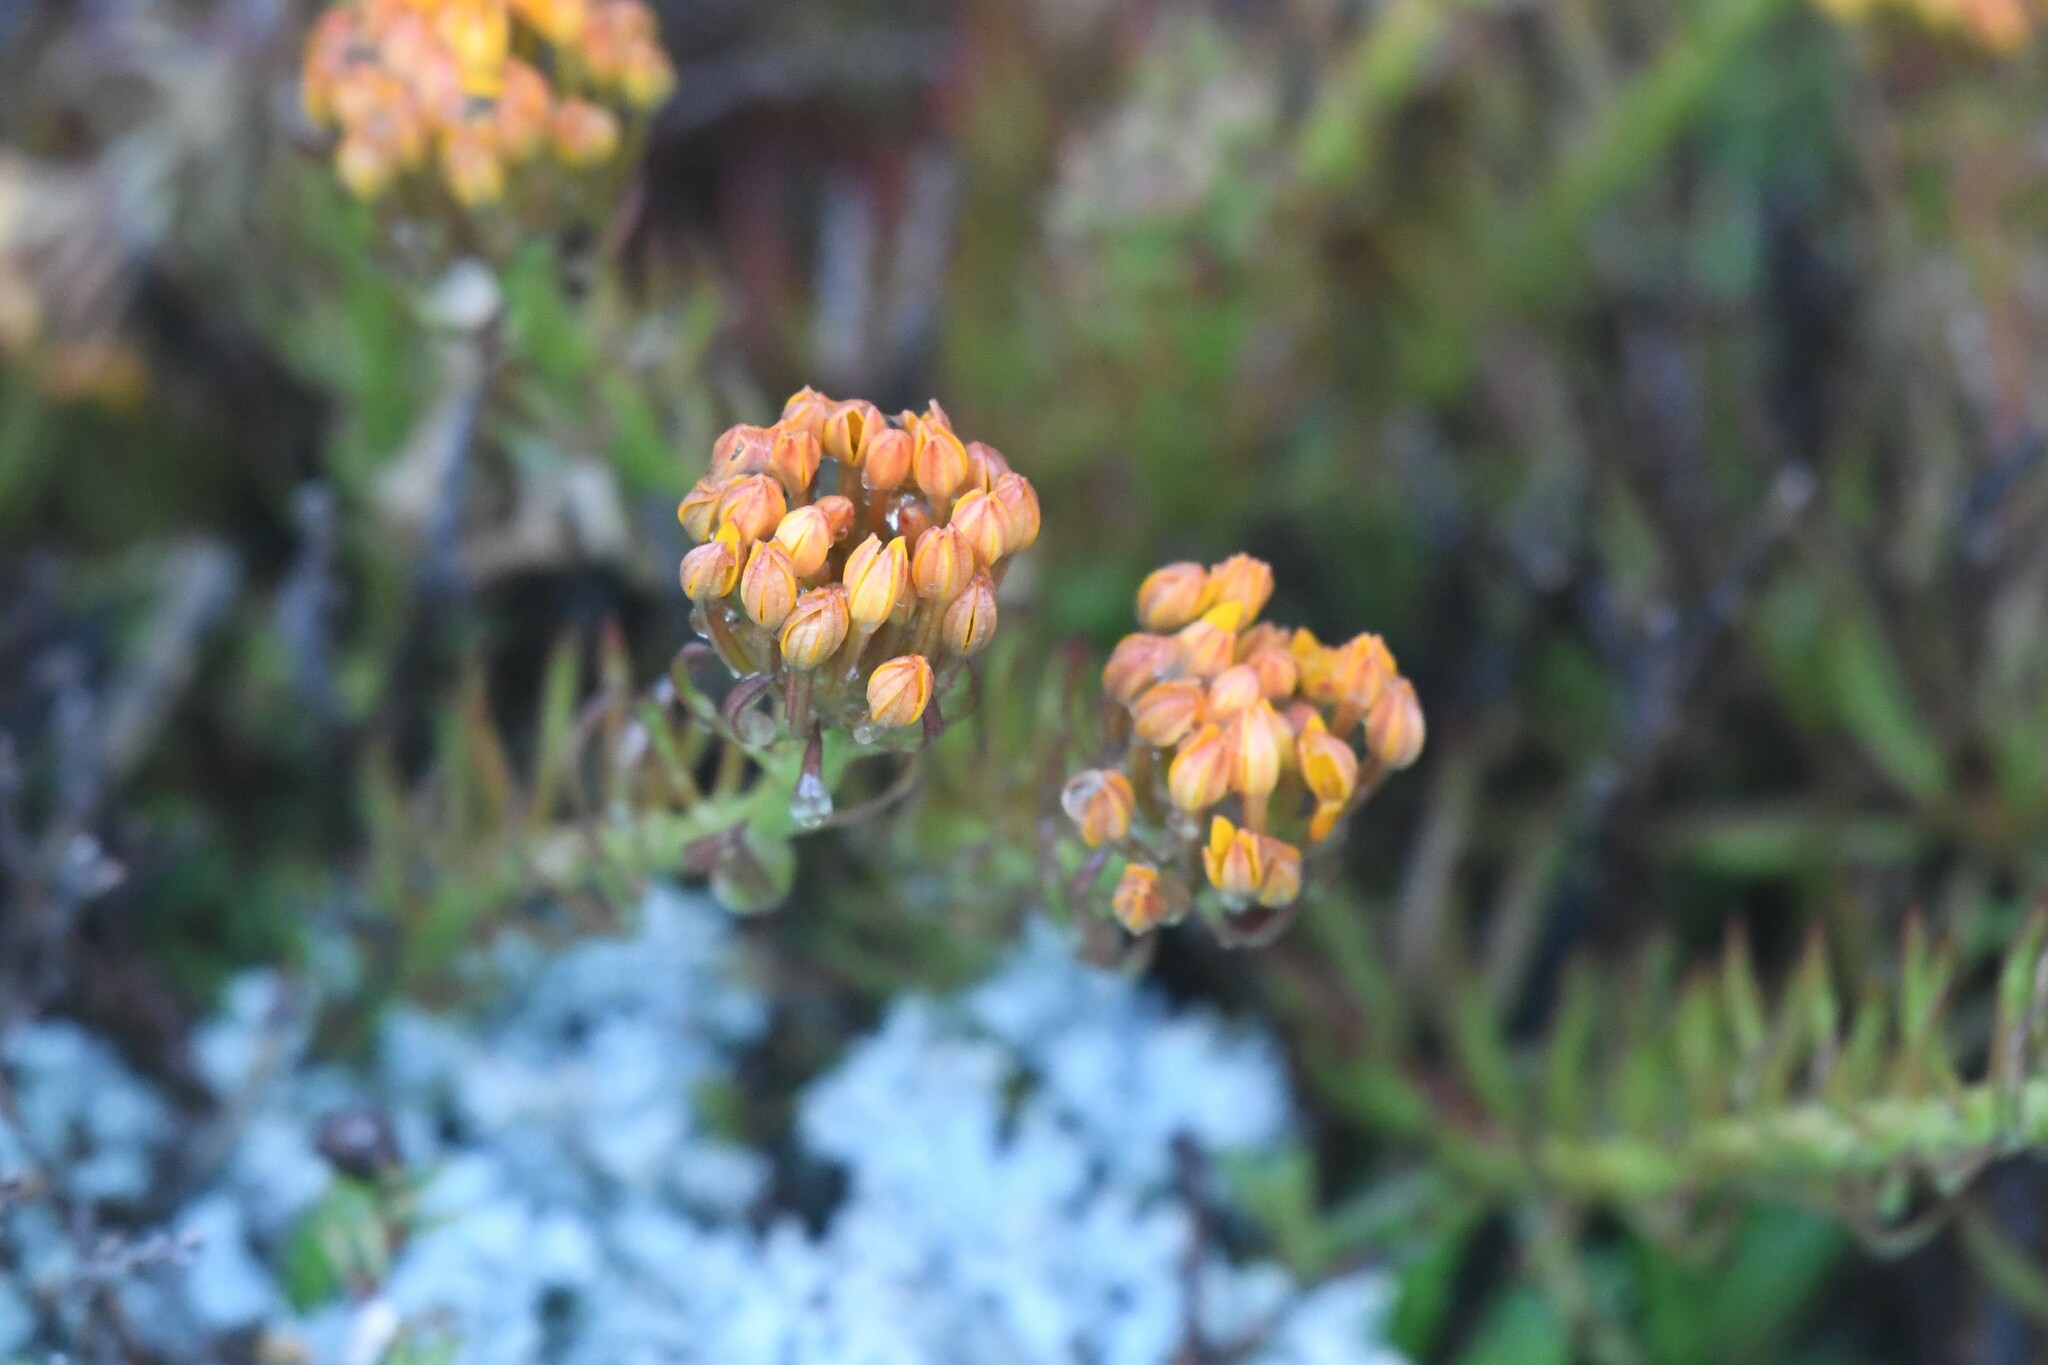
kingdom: Plantae
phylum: Tracheophyta
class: Magnoliopsida
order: Santalales
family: Schoepfiaceae
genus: Quinchamalium
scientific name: Quinchamalium chilense
